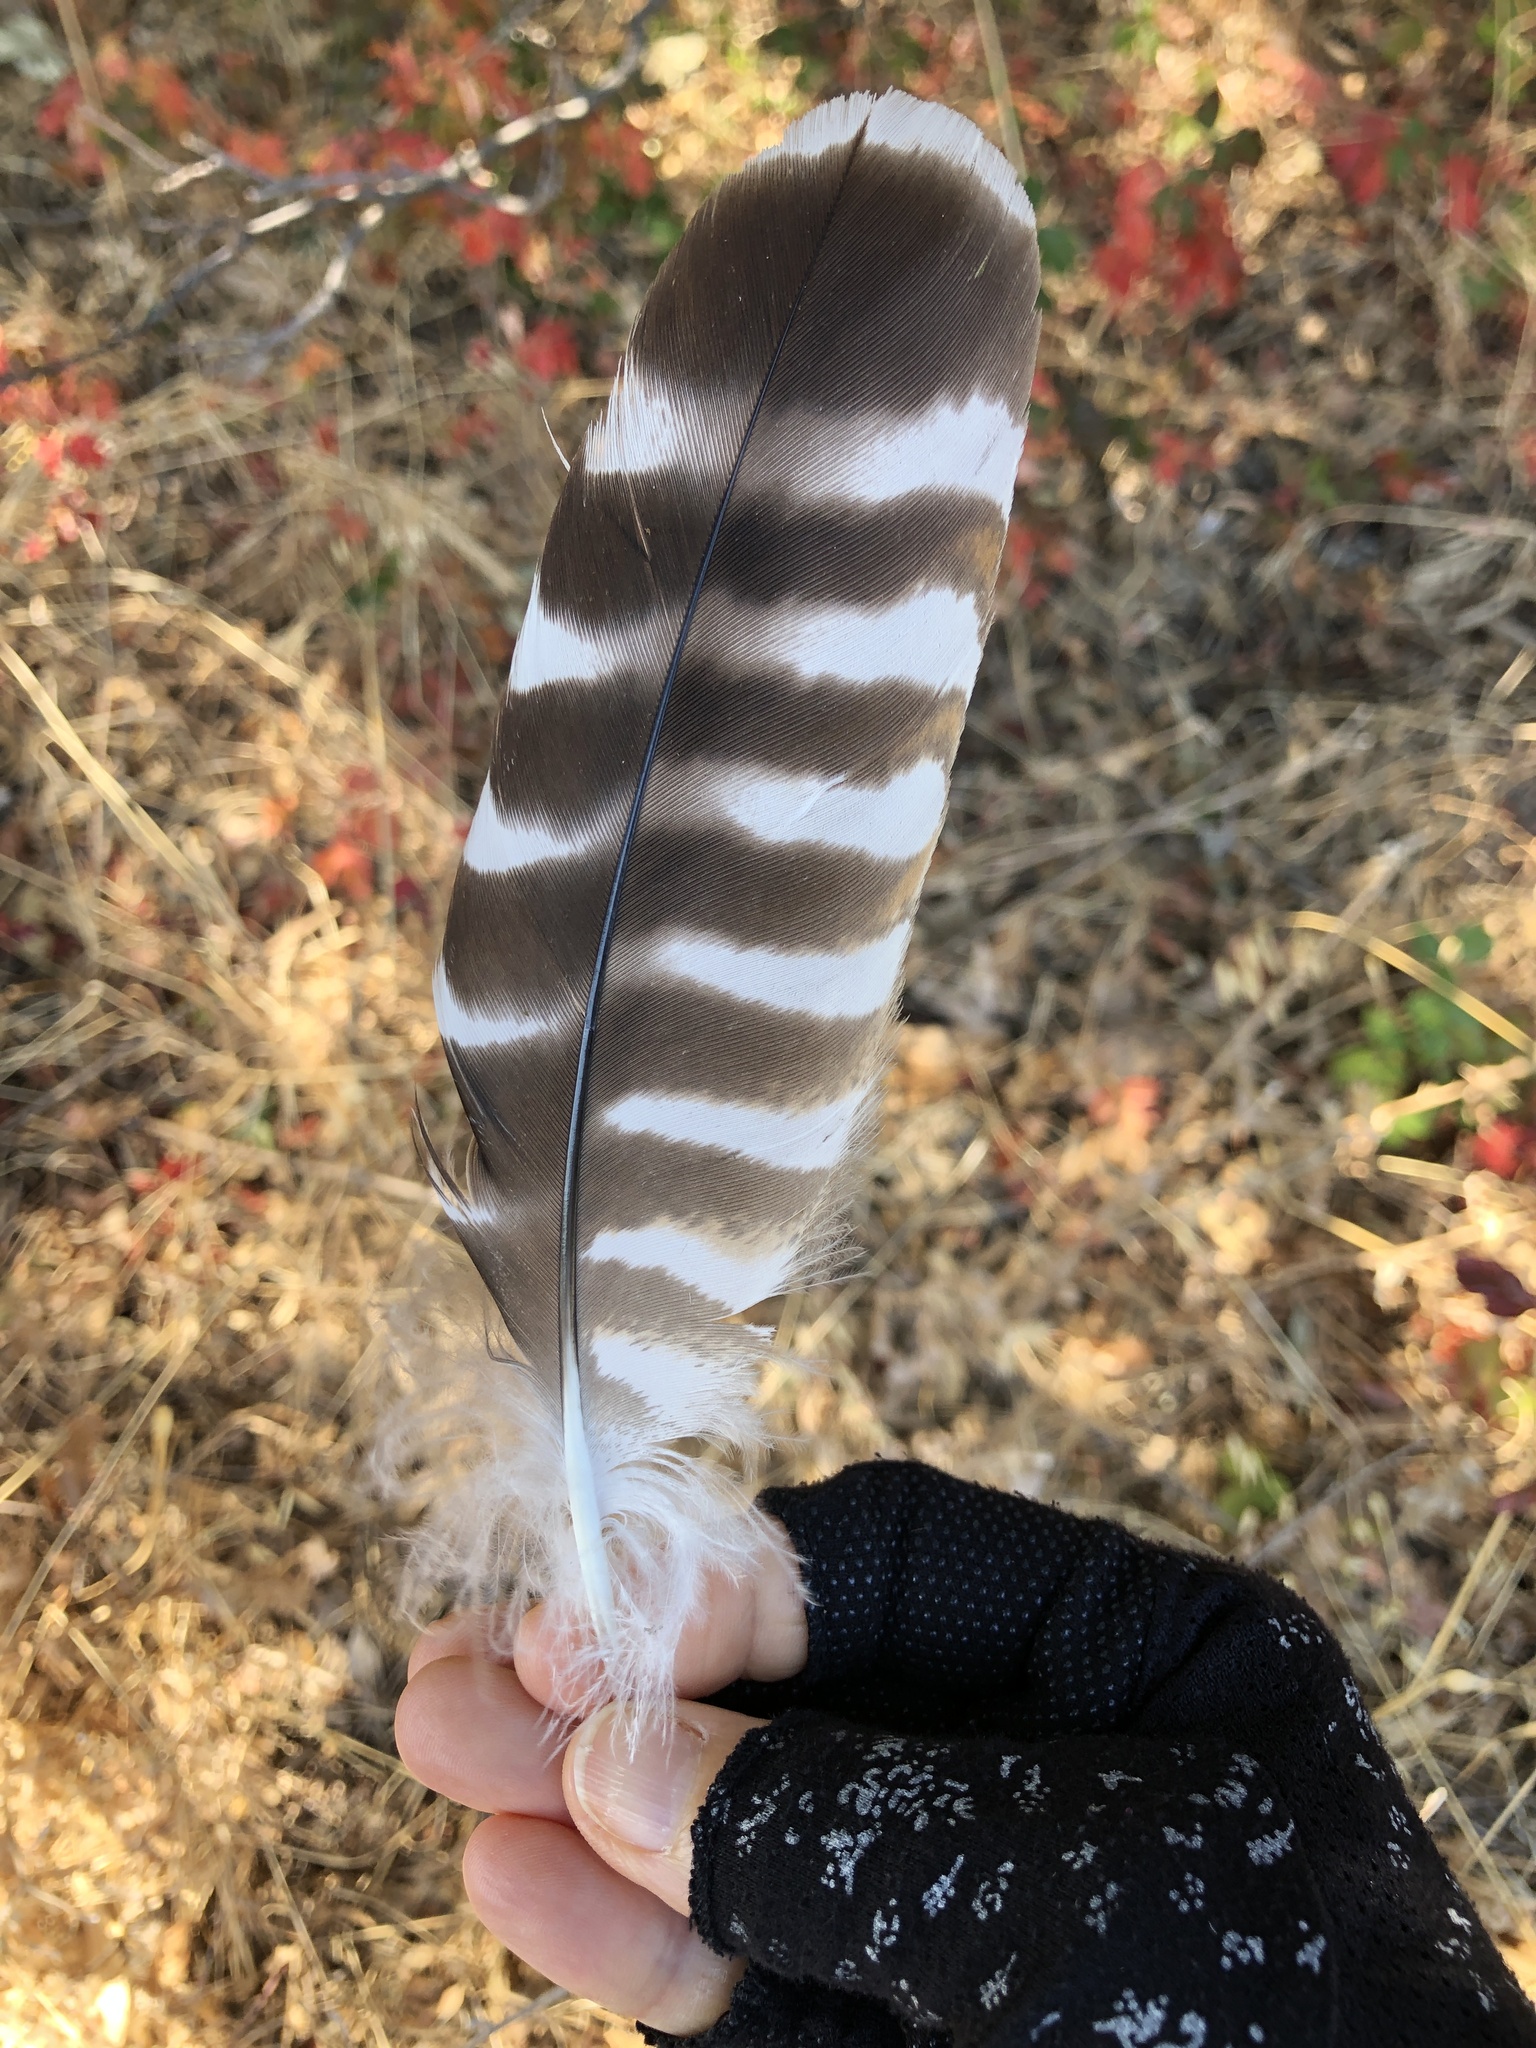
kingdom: Animalia
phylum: Chordata
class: Aves
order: Accipitriformes
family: Accipitridae
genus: Buteo
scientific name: Buteo lineatus
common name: Red-shouldered hawk
